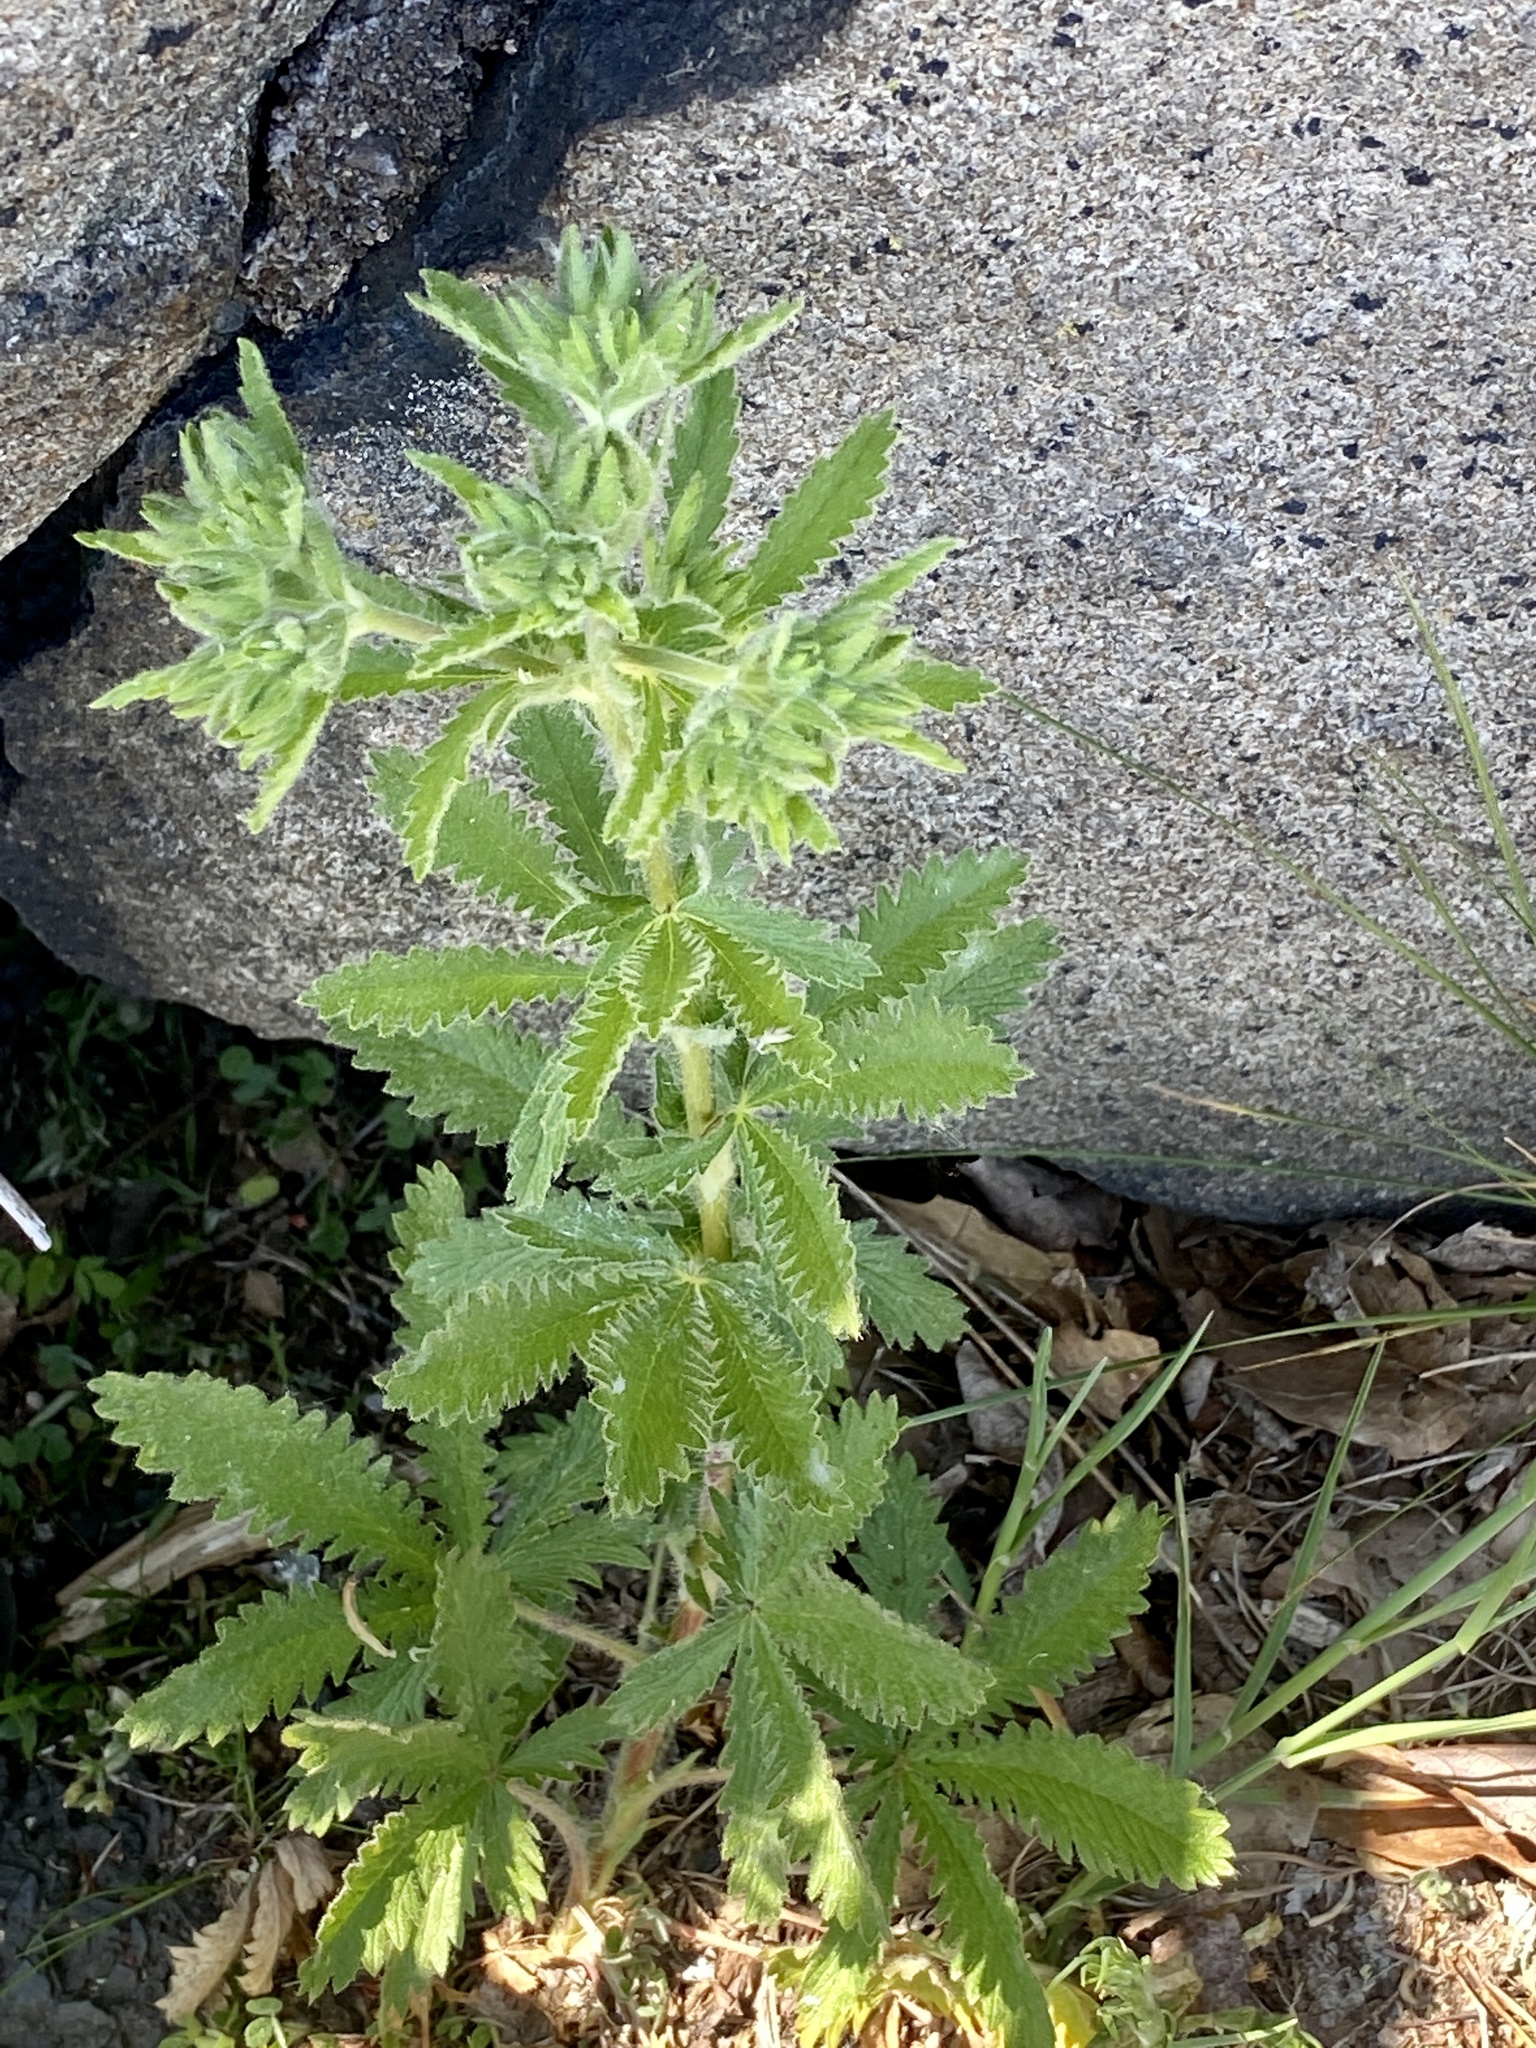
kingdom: Plantae
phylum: Tracheophyta
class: Magnoliopsida
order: Rosales
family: Rosaceae
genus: Potentilla
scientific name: Potentilla recta
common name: Sulphur cinquefoil
